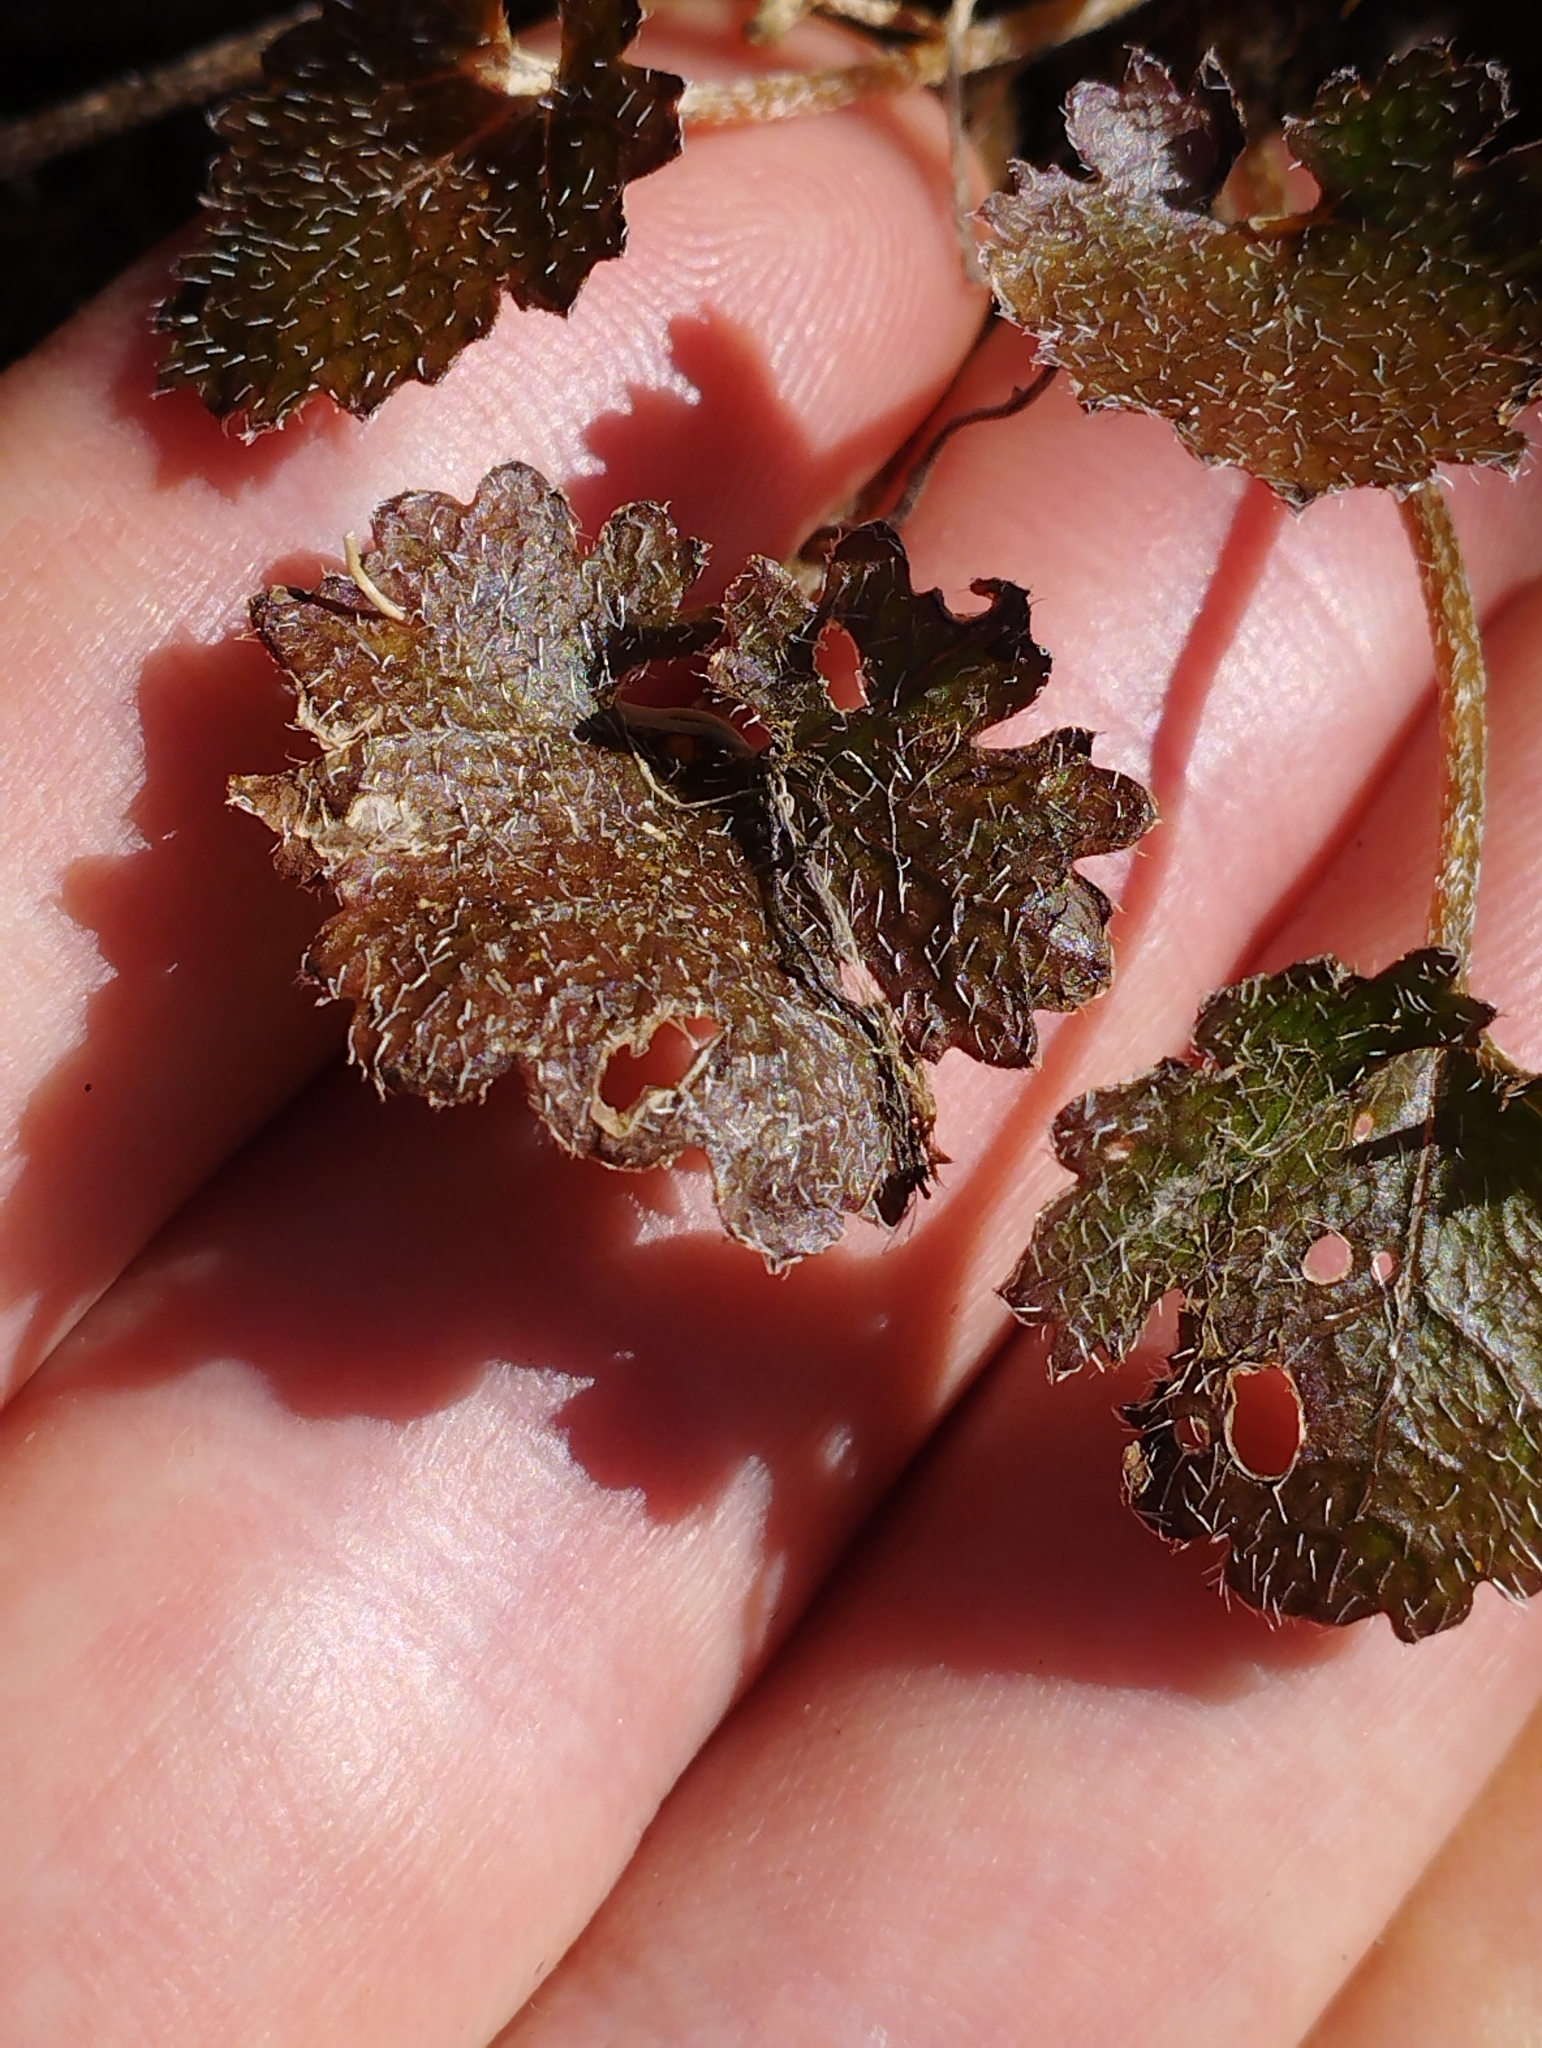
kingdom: Plantae
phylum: Tracheophyta
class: Magnoliopsida
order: Gunnerales
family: Gunneraceae
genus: Gunnera
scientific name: Gunnera monoica
